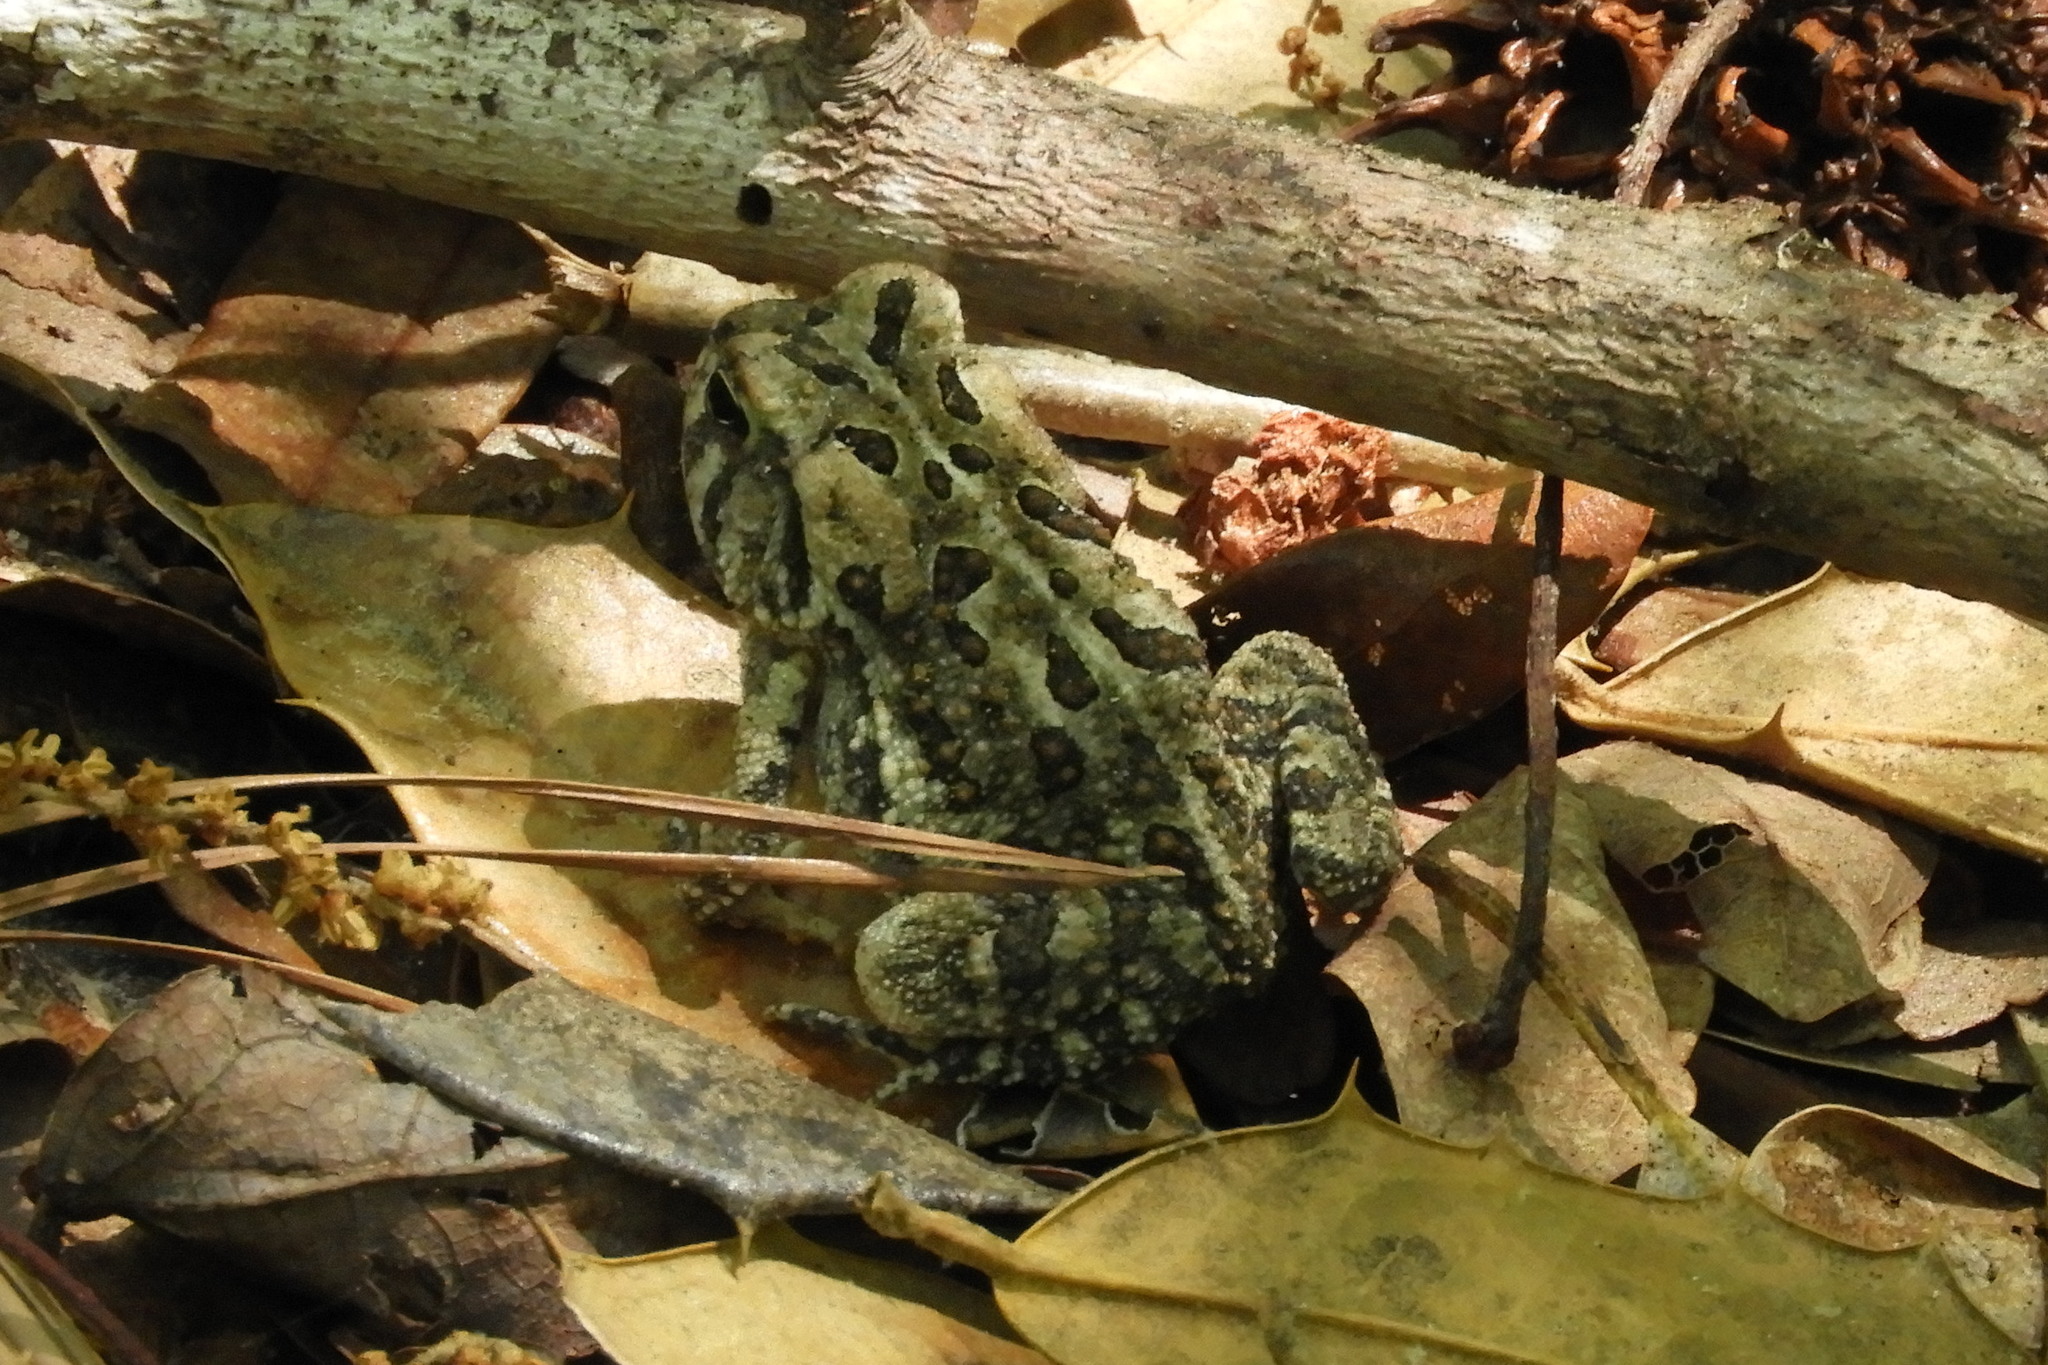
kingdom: Animalia
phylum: Chordata
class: Amphibia
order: Anura
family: Bufonidae
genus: Anaxyrus
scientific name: Anaxyrus fowleri
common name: Fowler's toad
